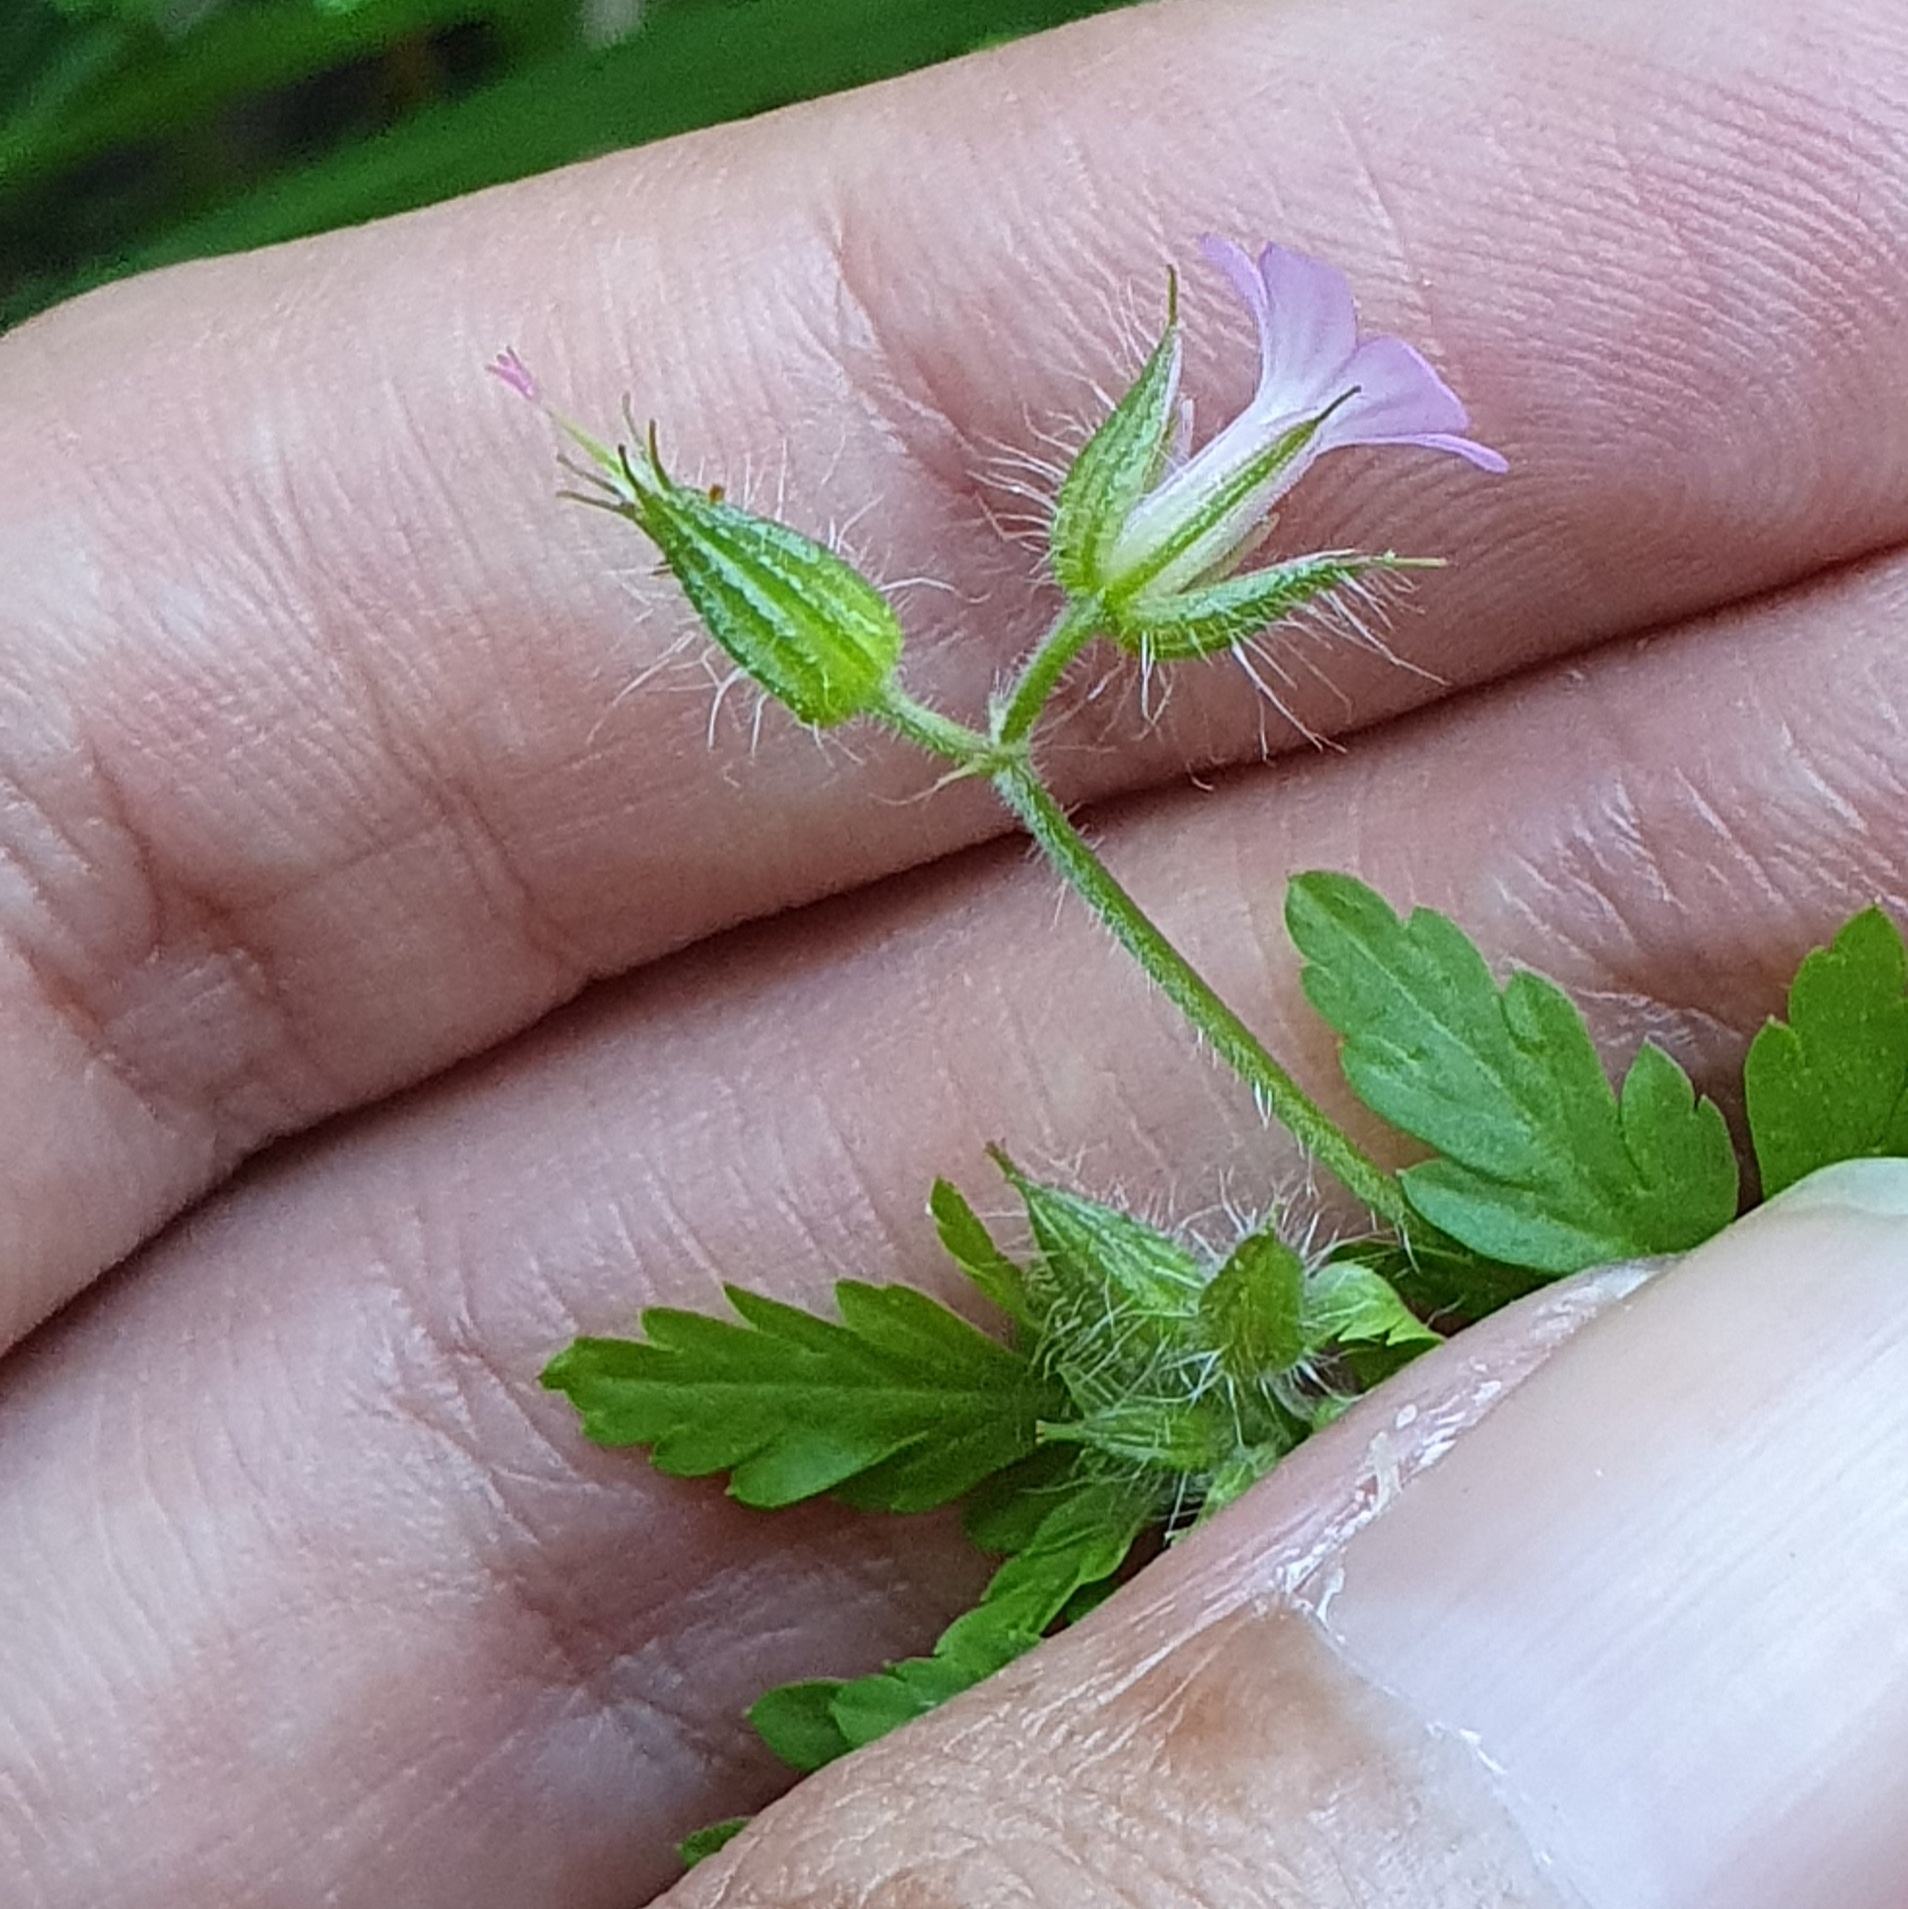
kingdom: Plantae
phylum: Tracheophyta
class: Magnoliopsida
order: Geraniales
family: Geraniaceae
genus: Geranium
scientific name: Geranium purpureum
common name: Little-robin
